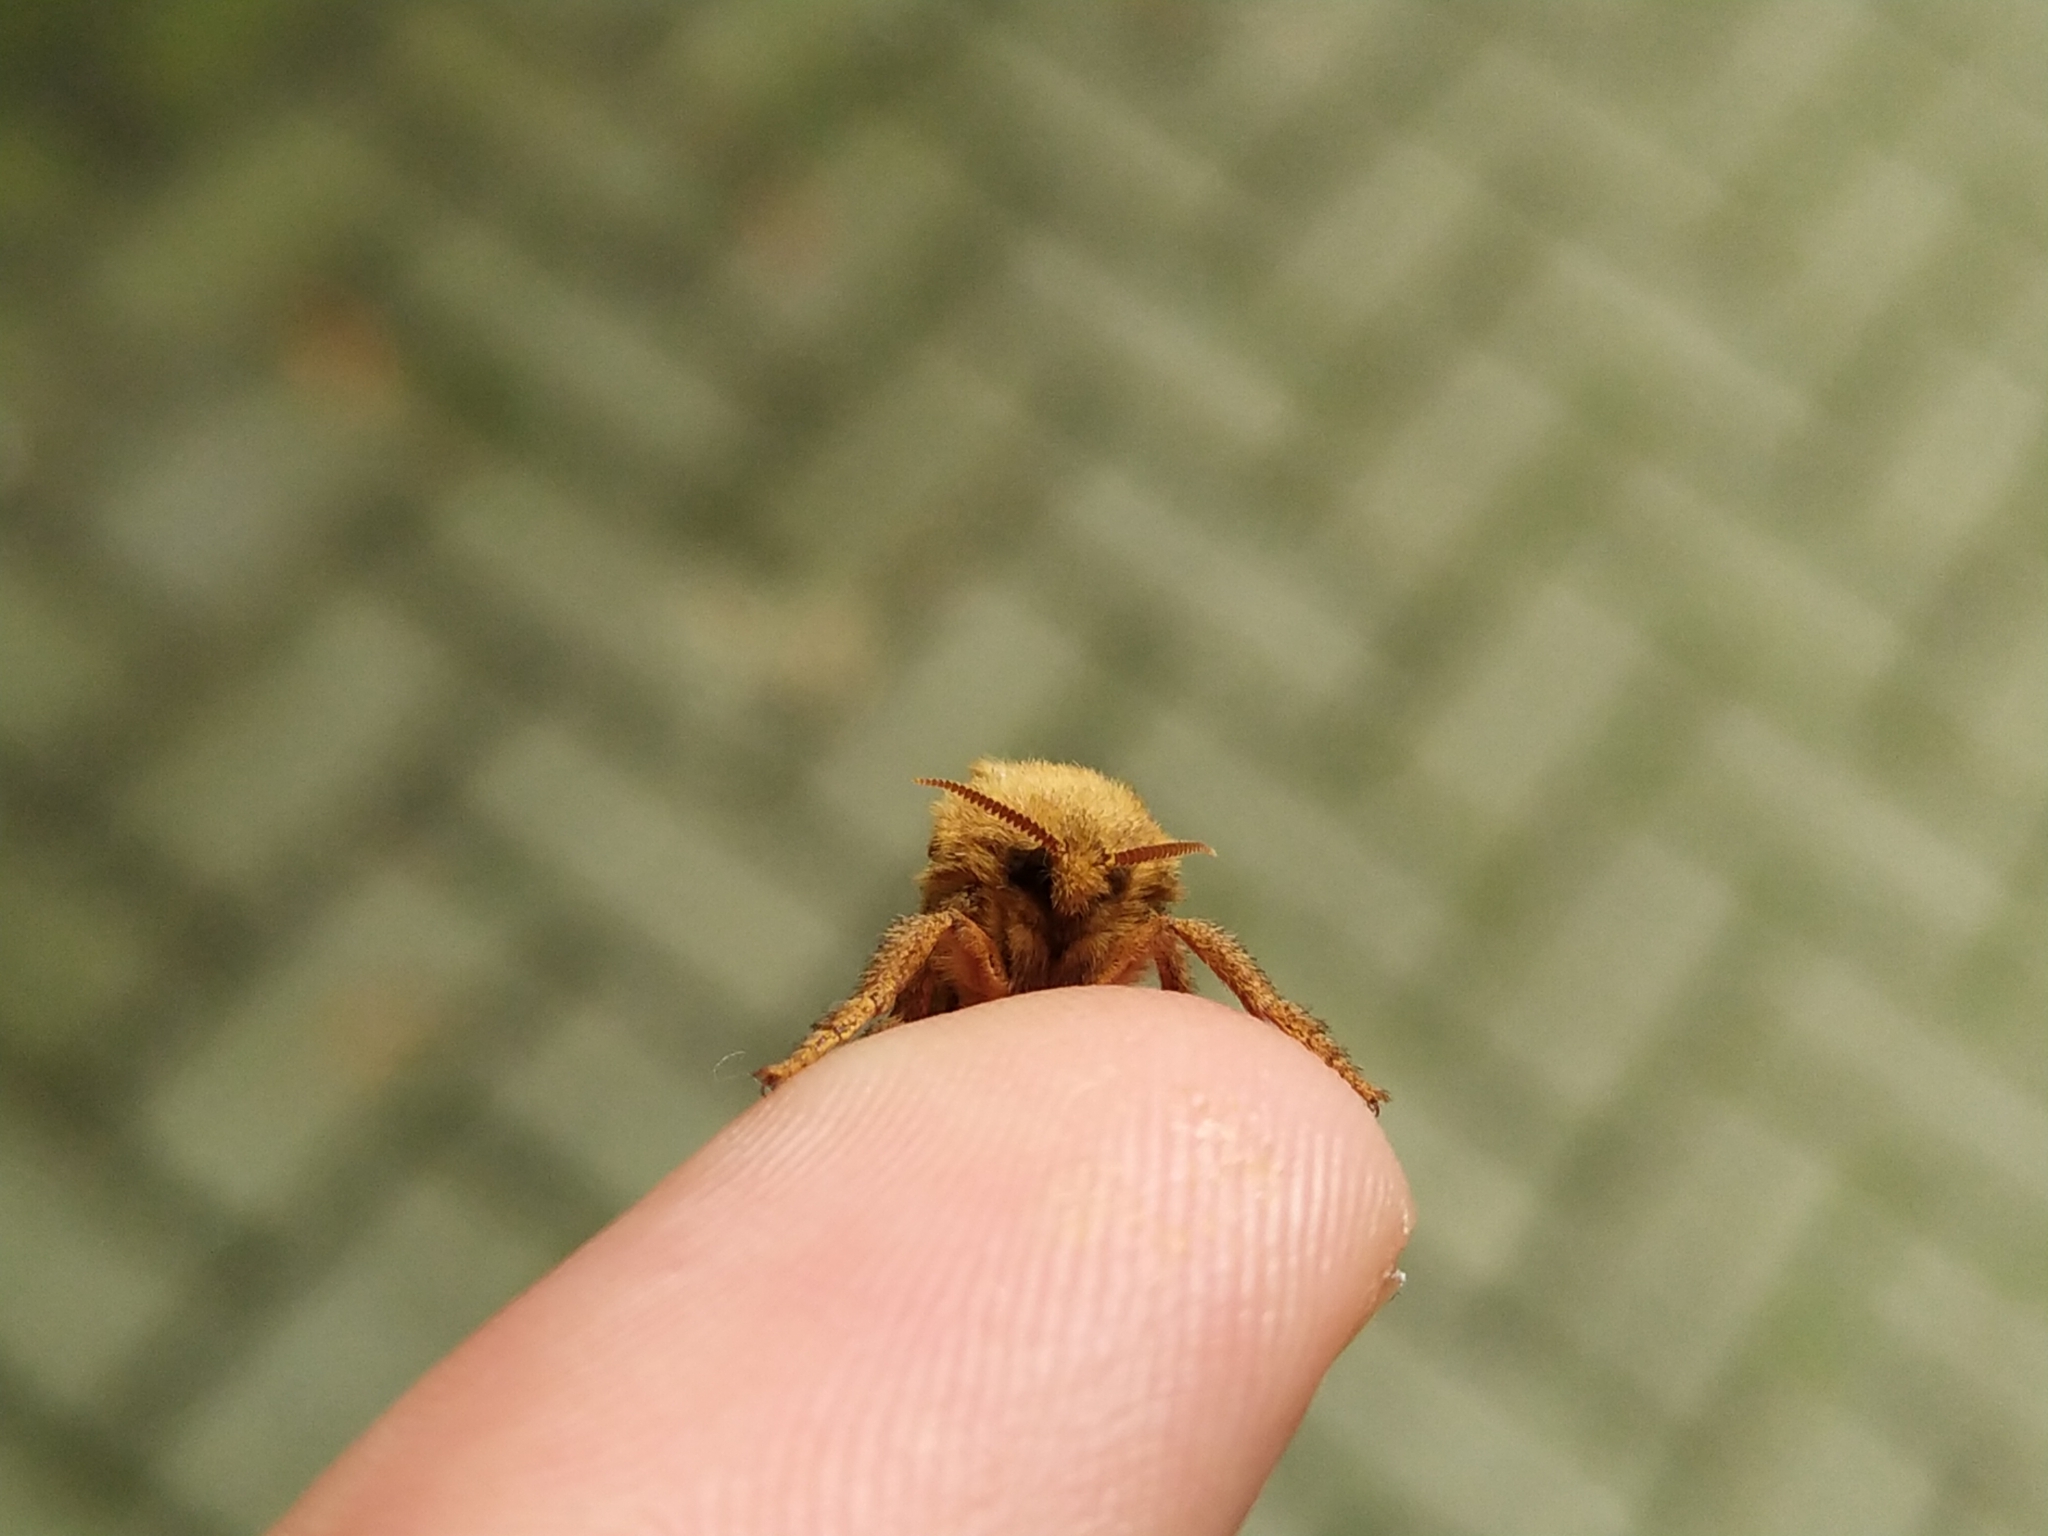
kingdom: Animalia
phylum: Arthropoda
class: Insecta
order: Lepidoptera
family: Hepialidae
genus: Triodia
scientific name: Triodia sylvina
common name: Orange swift
